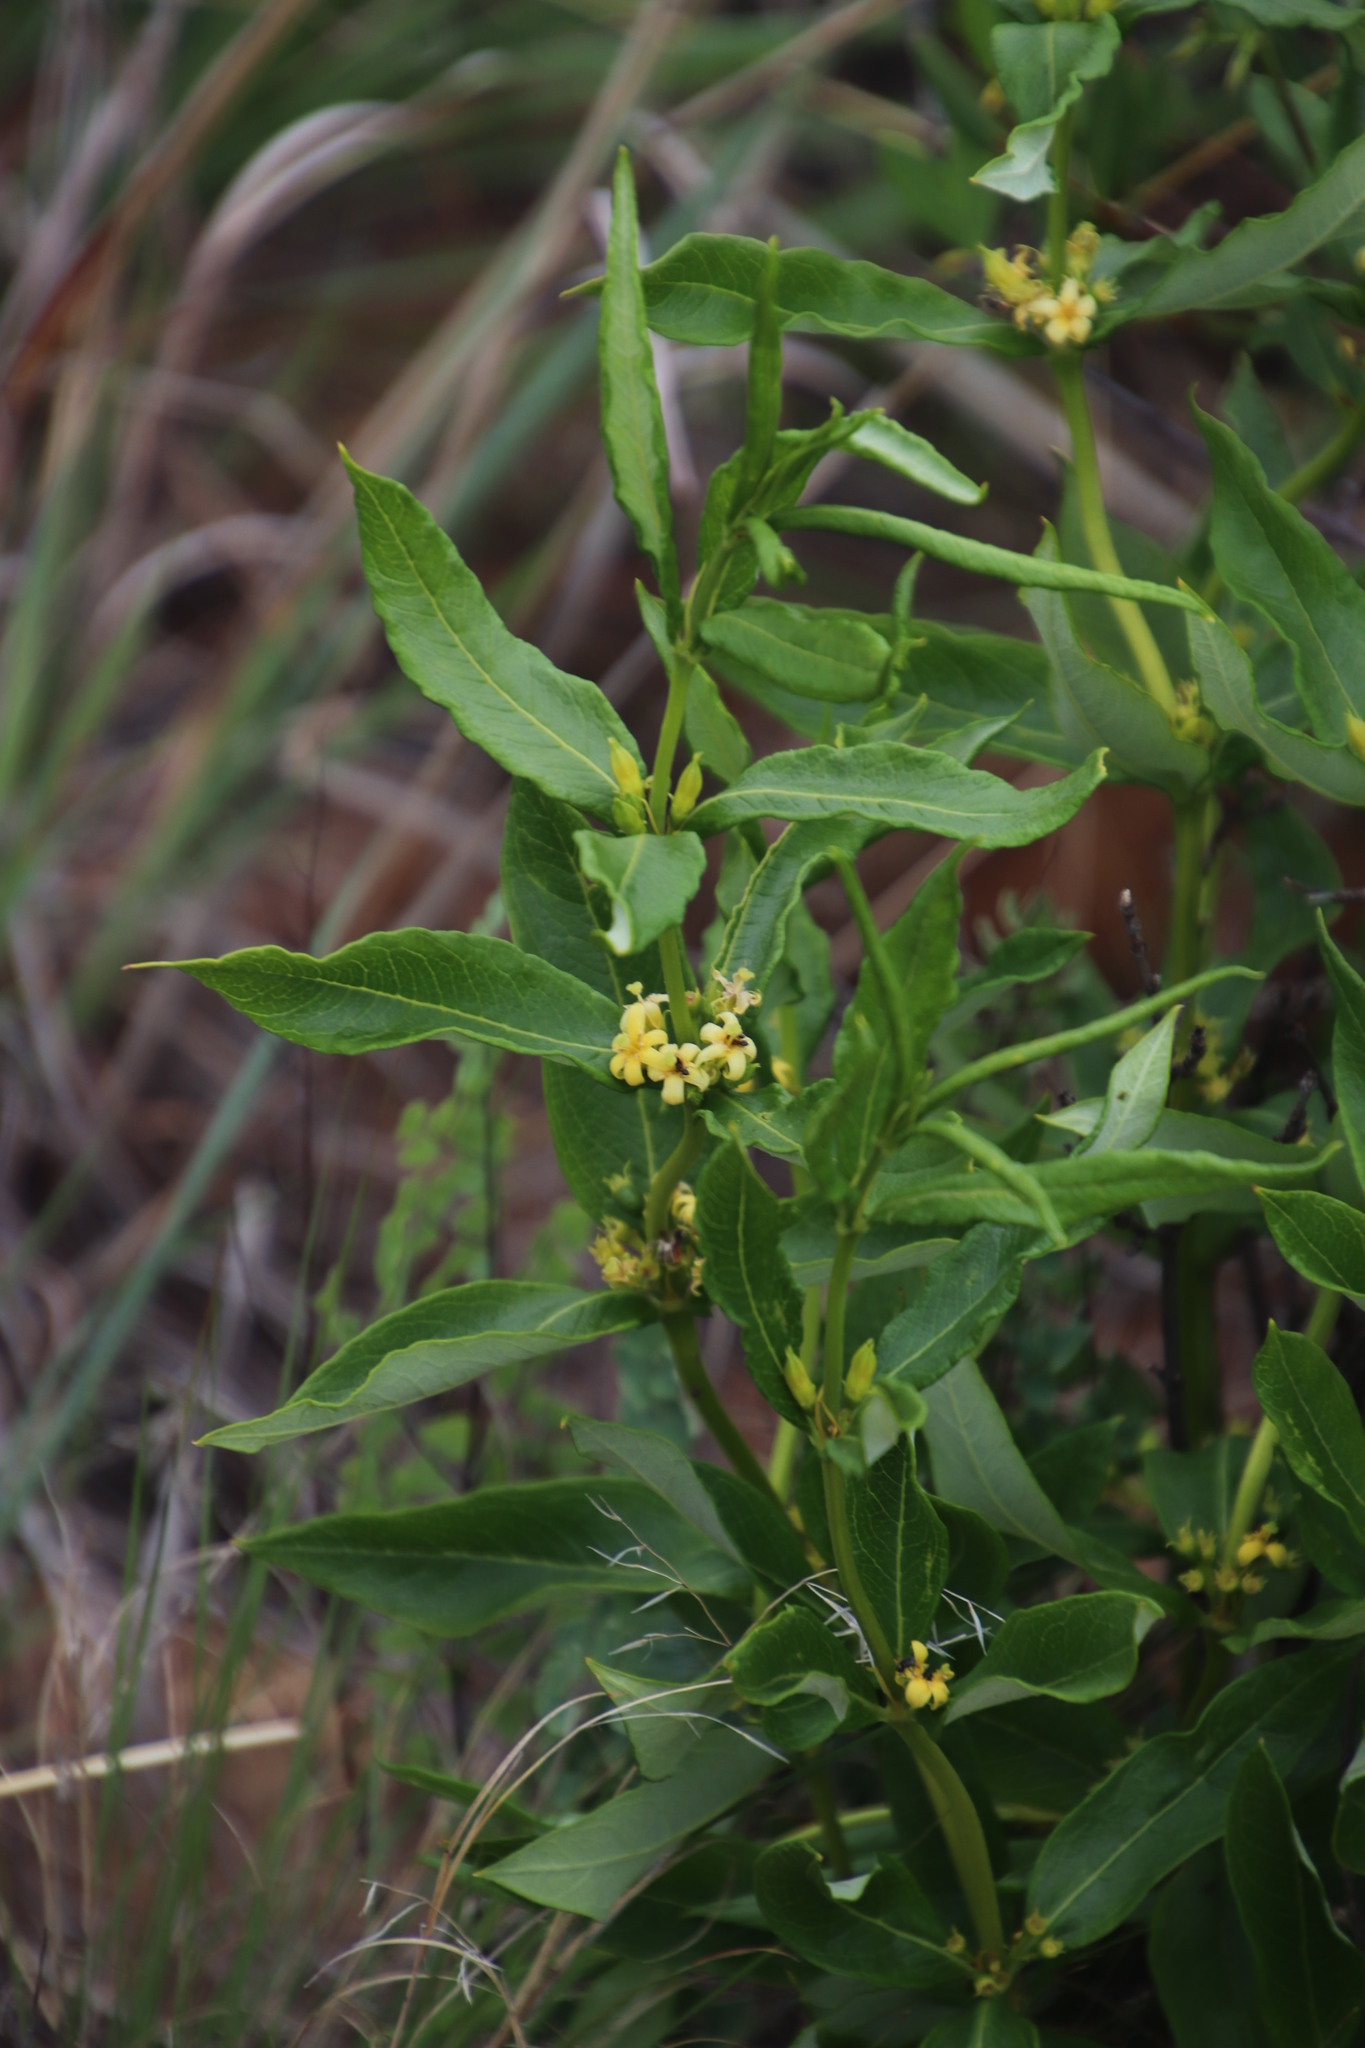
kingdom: Plantae
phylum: Tracheophyta
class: Magnoliopsida
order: Gentianales
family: Rubiaceae
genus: Fadogia
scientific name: Fadogia homblei
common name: Wild date
